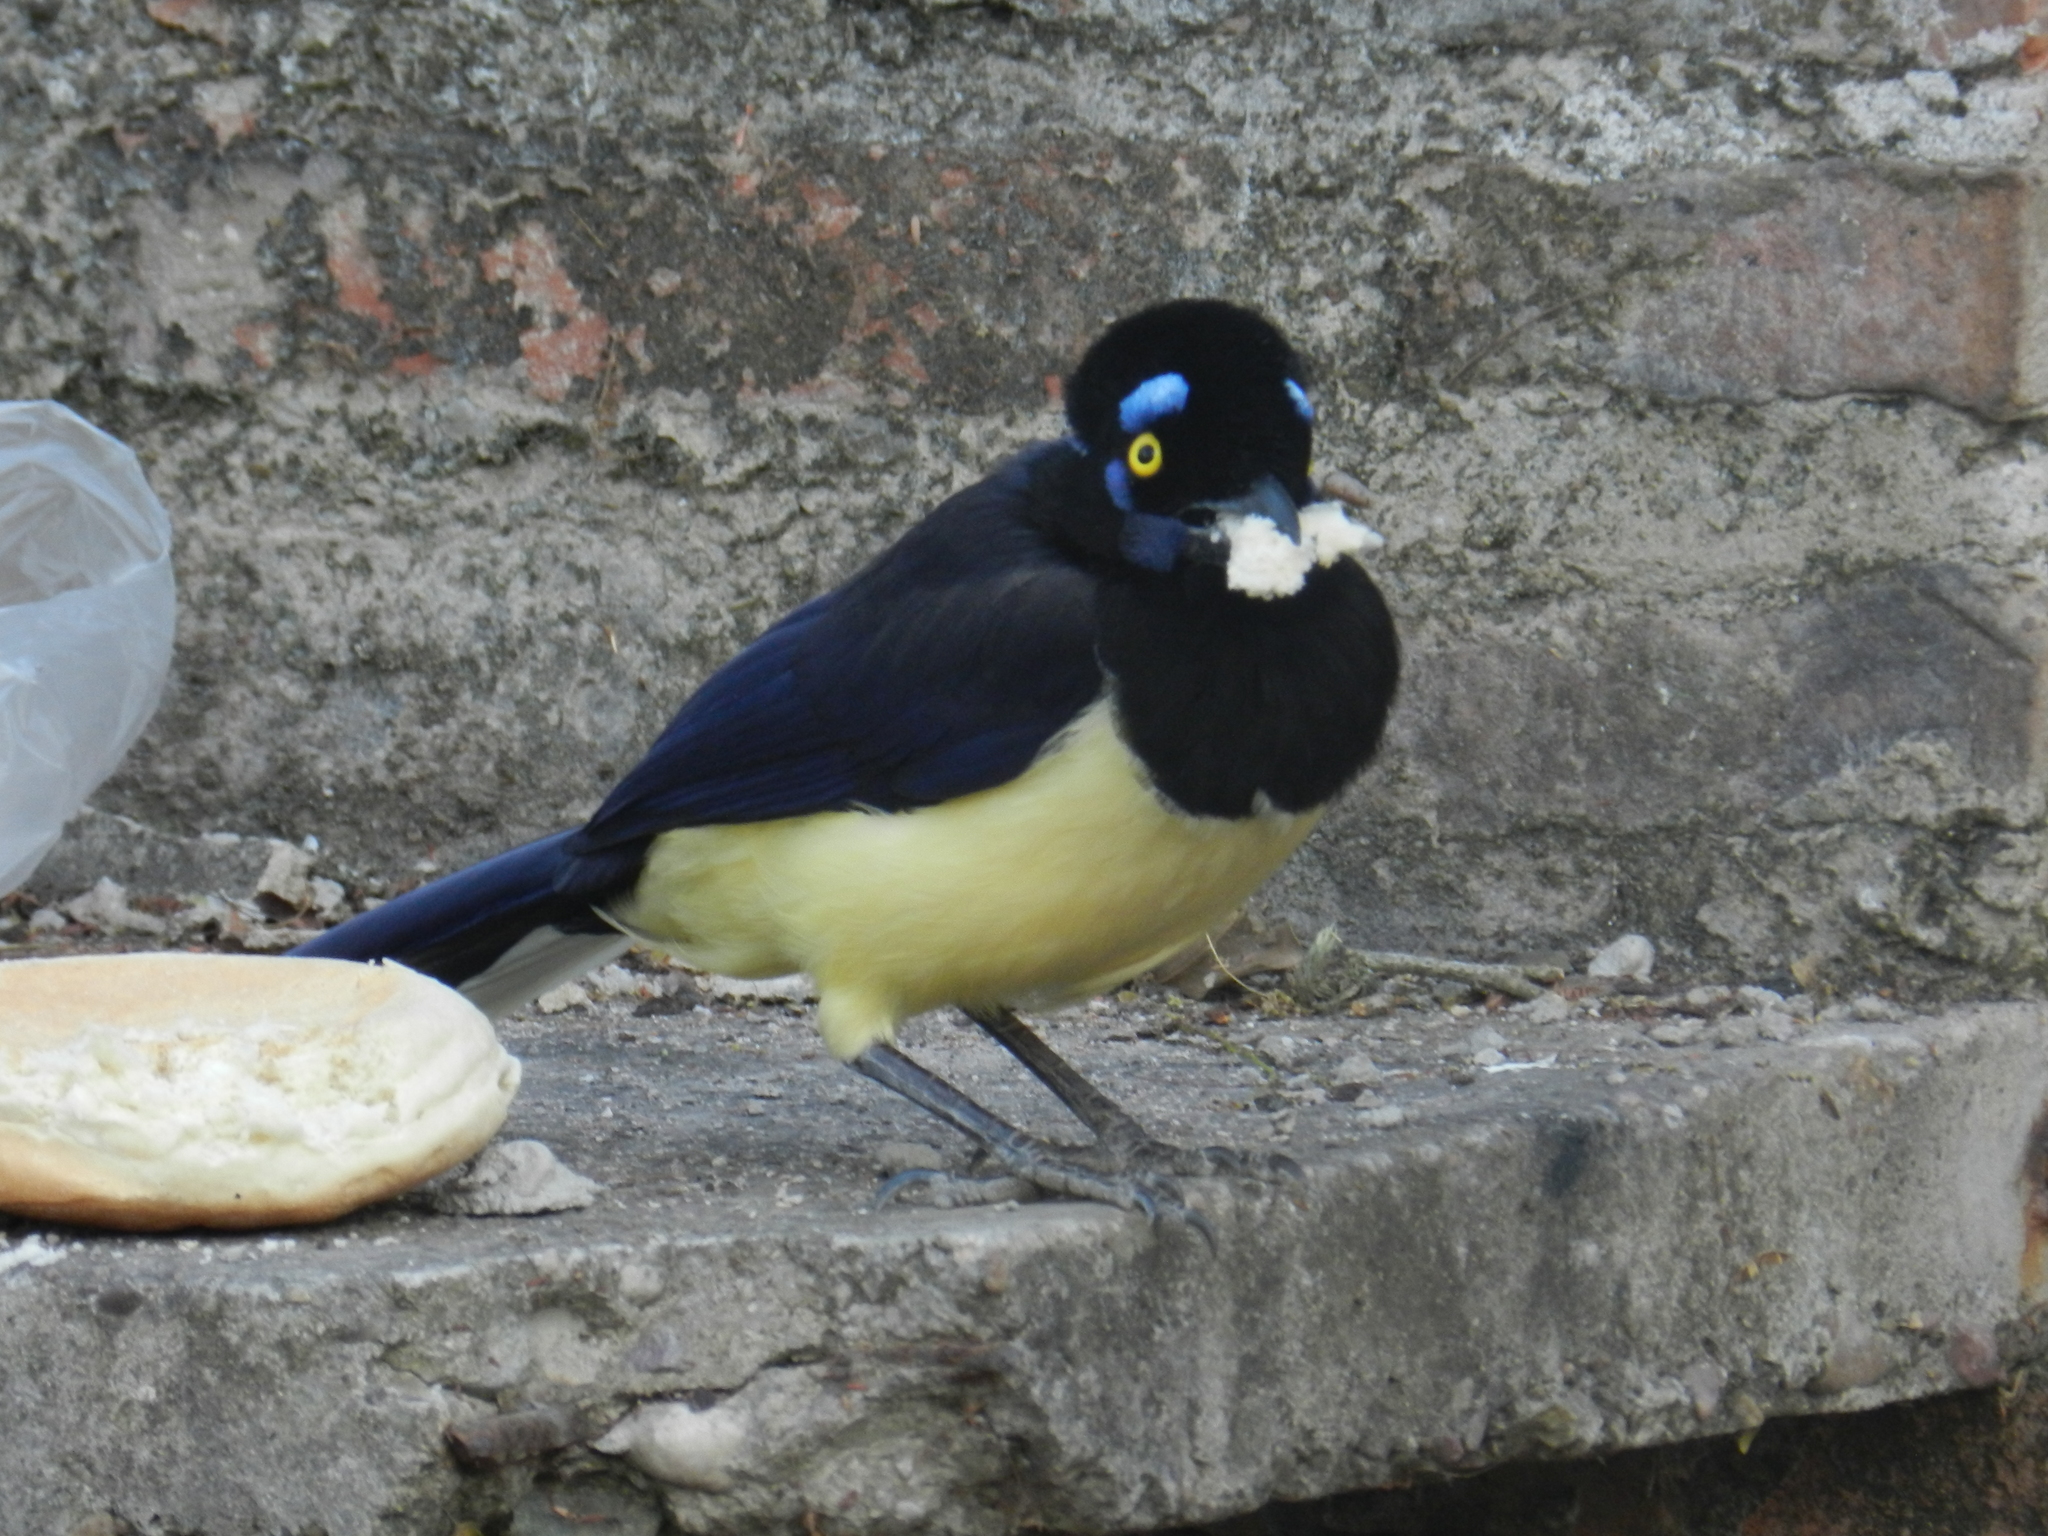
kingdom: Animalia
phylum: Chordata
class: Aves
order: Passeriformes
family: Corvidae
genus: Cyanocorax
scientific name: Cyanocorax chrysops
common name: Plush-crested jay
